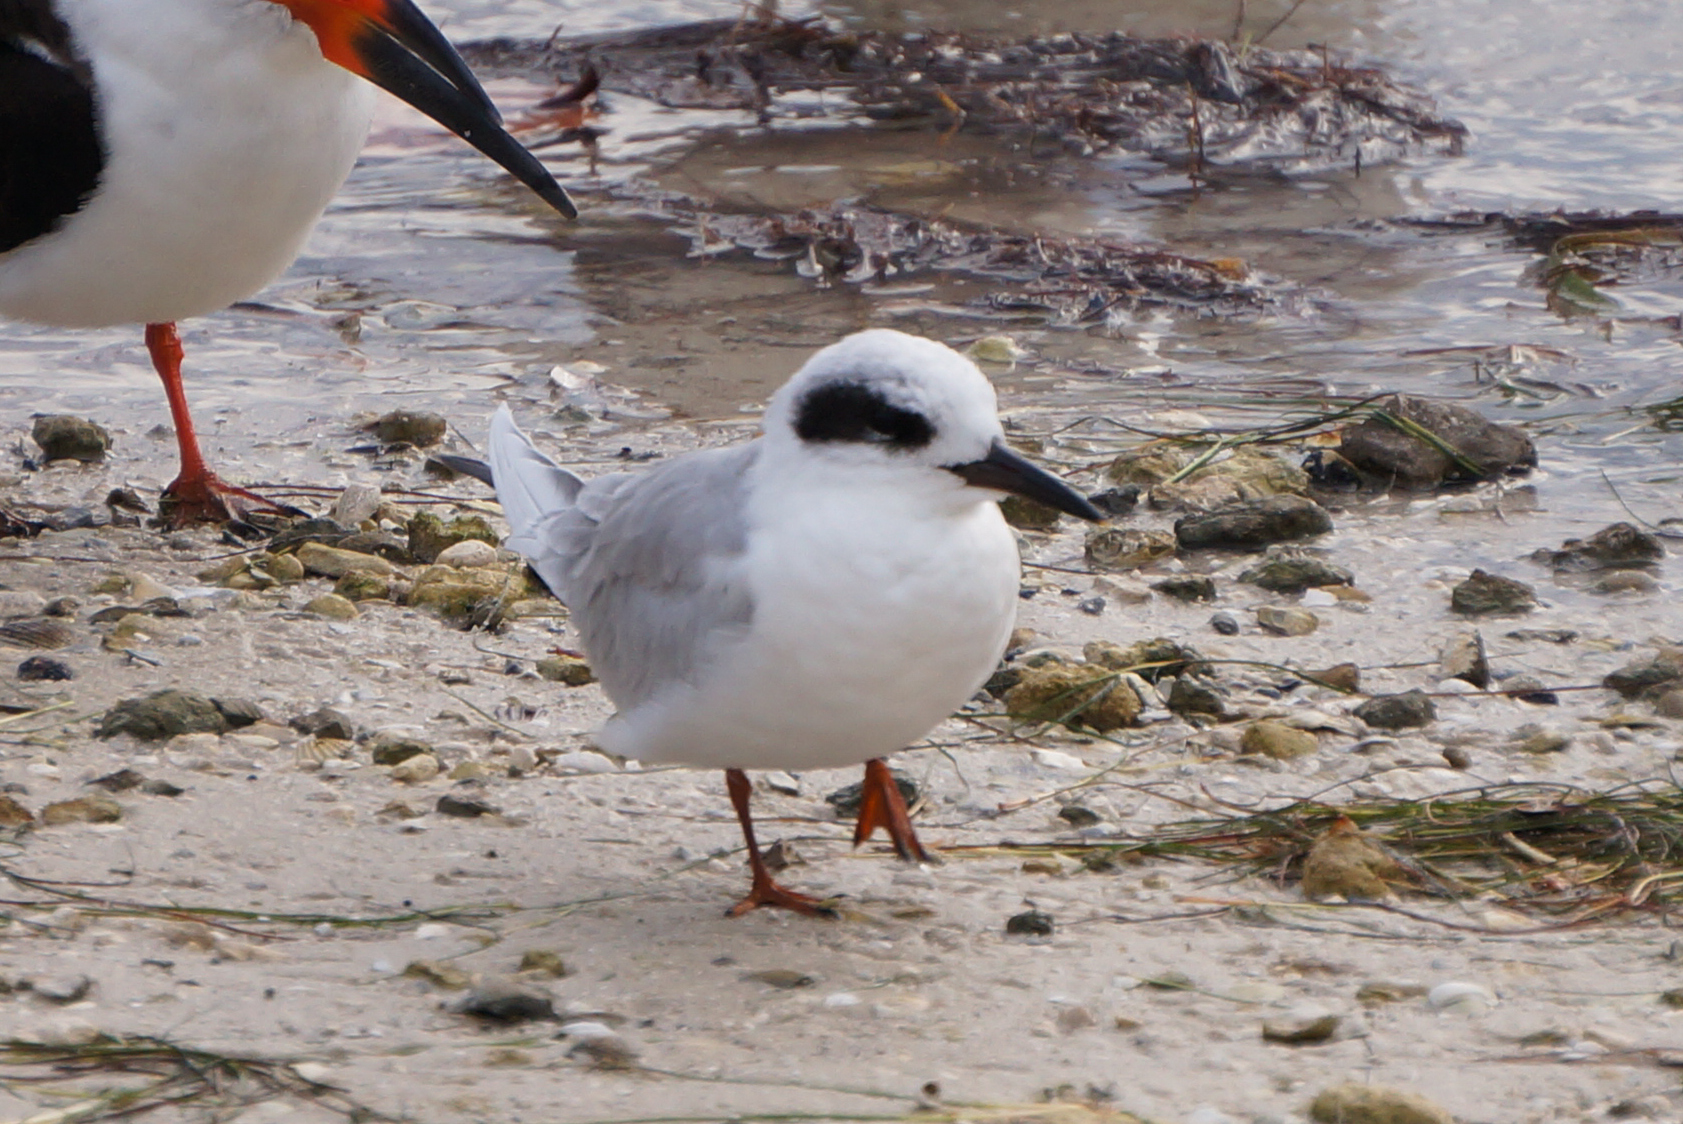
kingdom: Animalia
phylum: Chordata
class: Aves
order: Charadriiformes
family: Laridae
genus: Sterna
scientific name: Sterna forsteri
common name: Forster's tern
